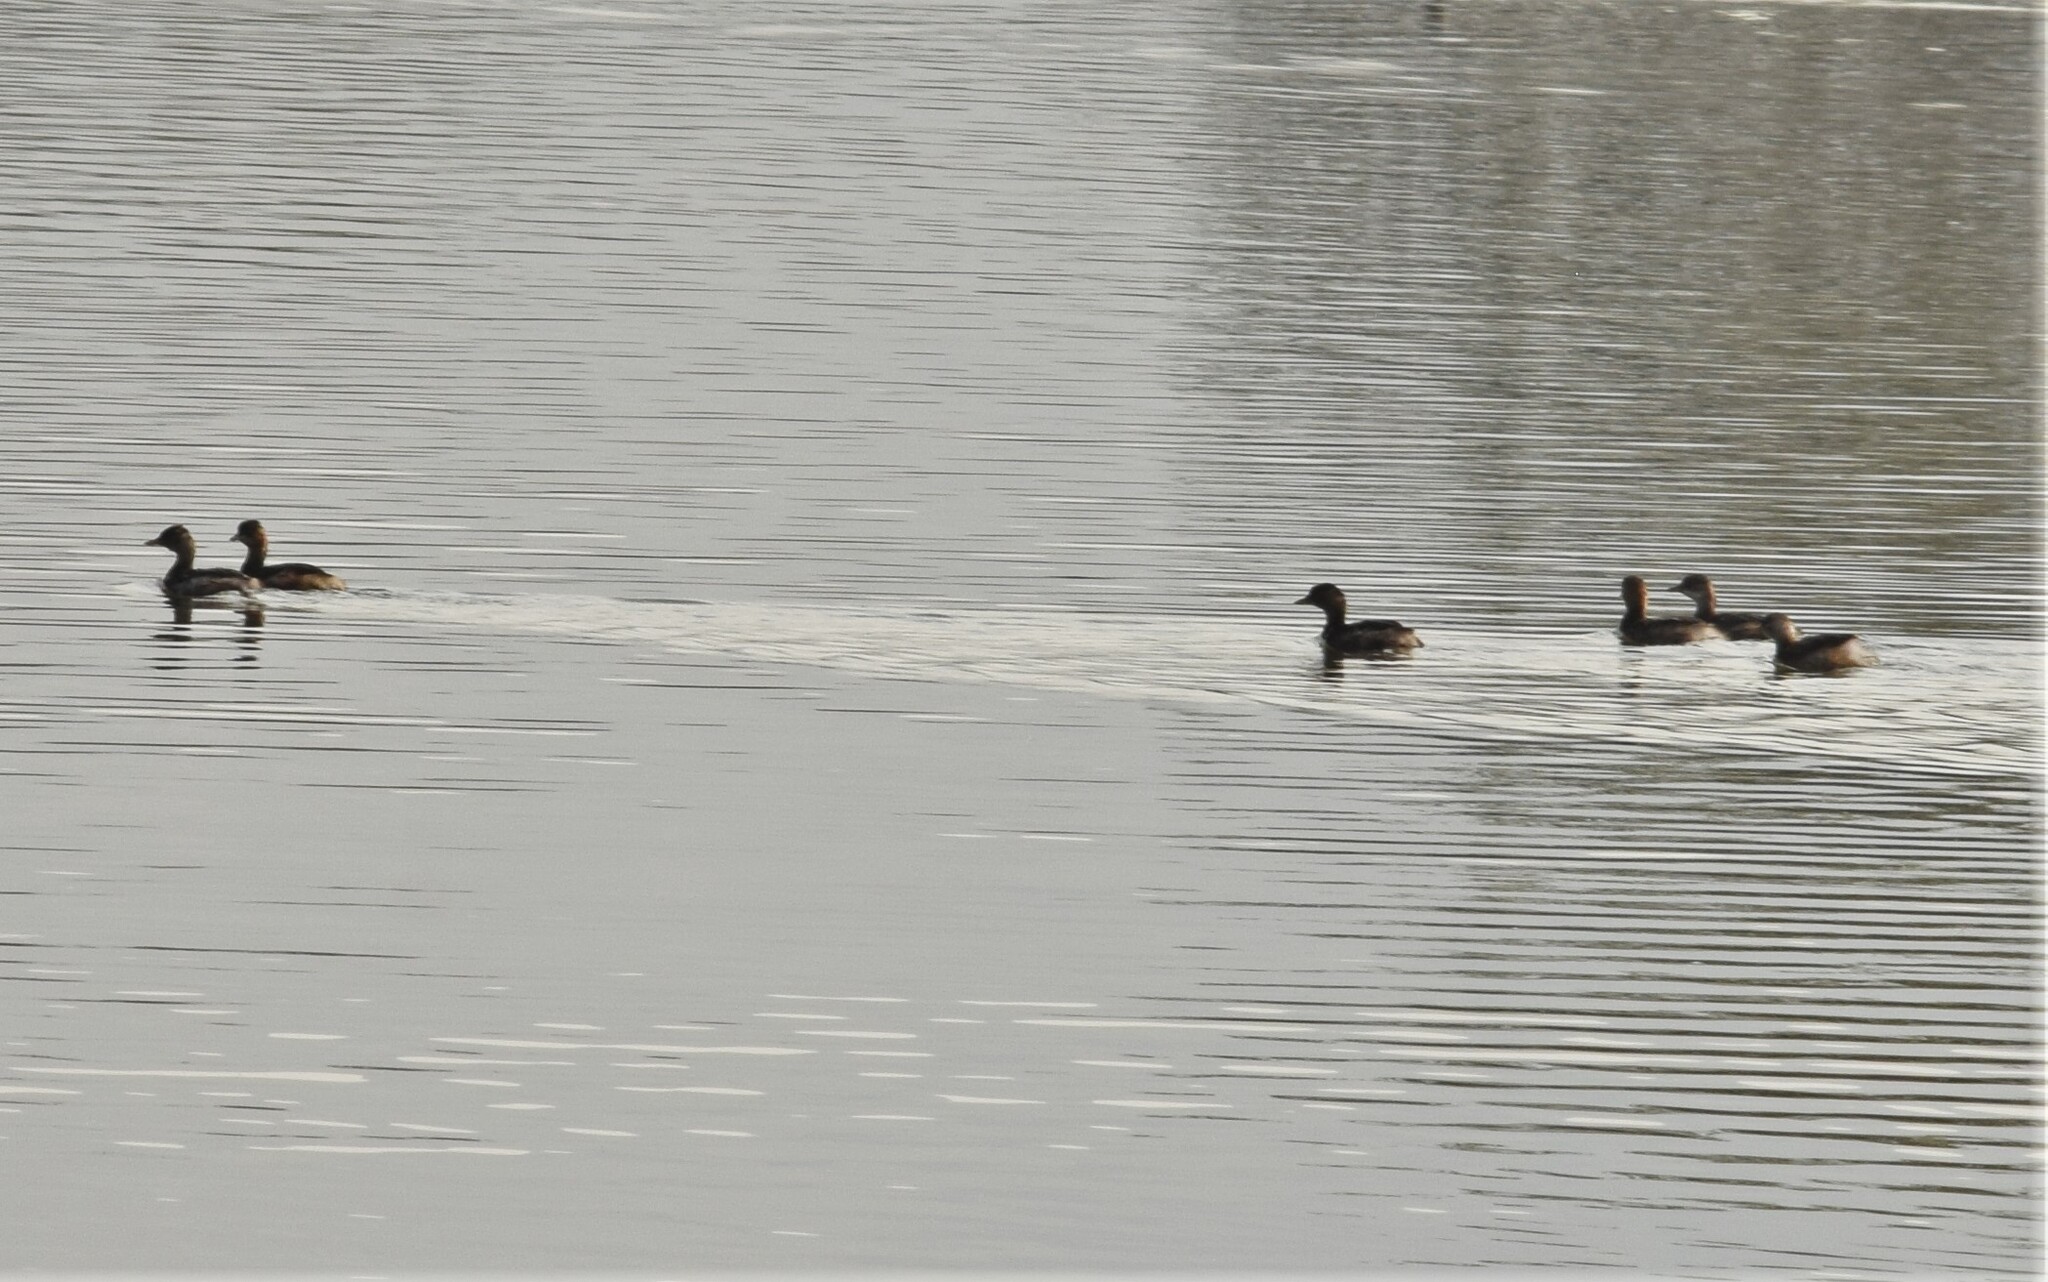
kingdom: Animalia
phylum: Chordata
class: Aves
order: Podicipediformes
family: Podicipedidae
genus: Tachybaptus
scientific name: Tachybaptus ruficollis
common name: Little grebe
